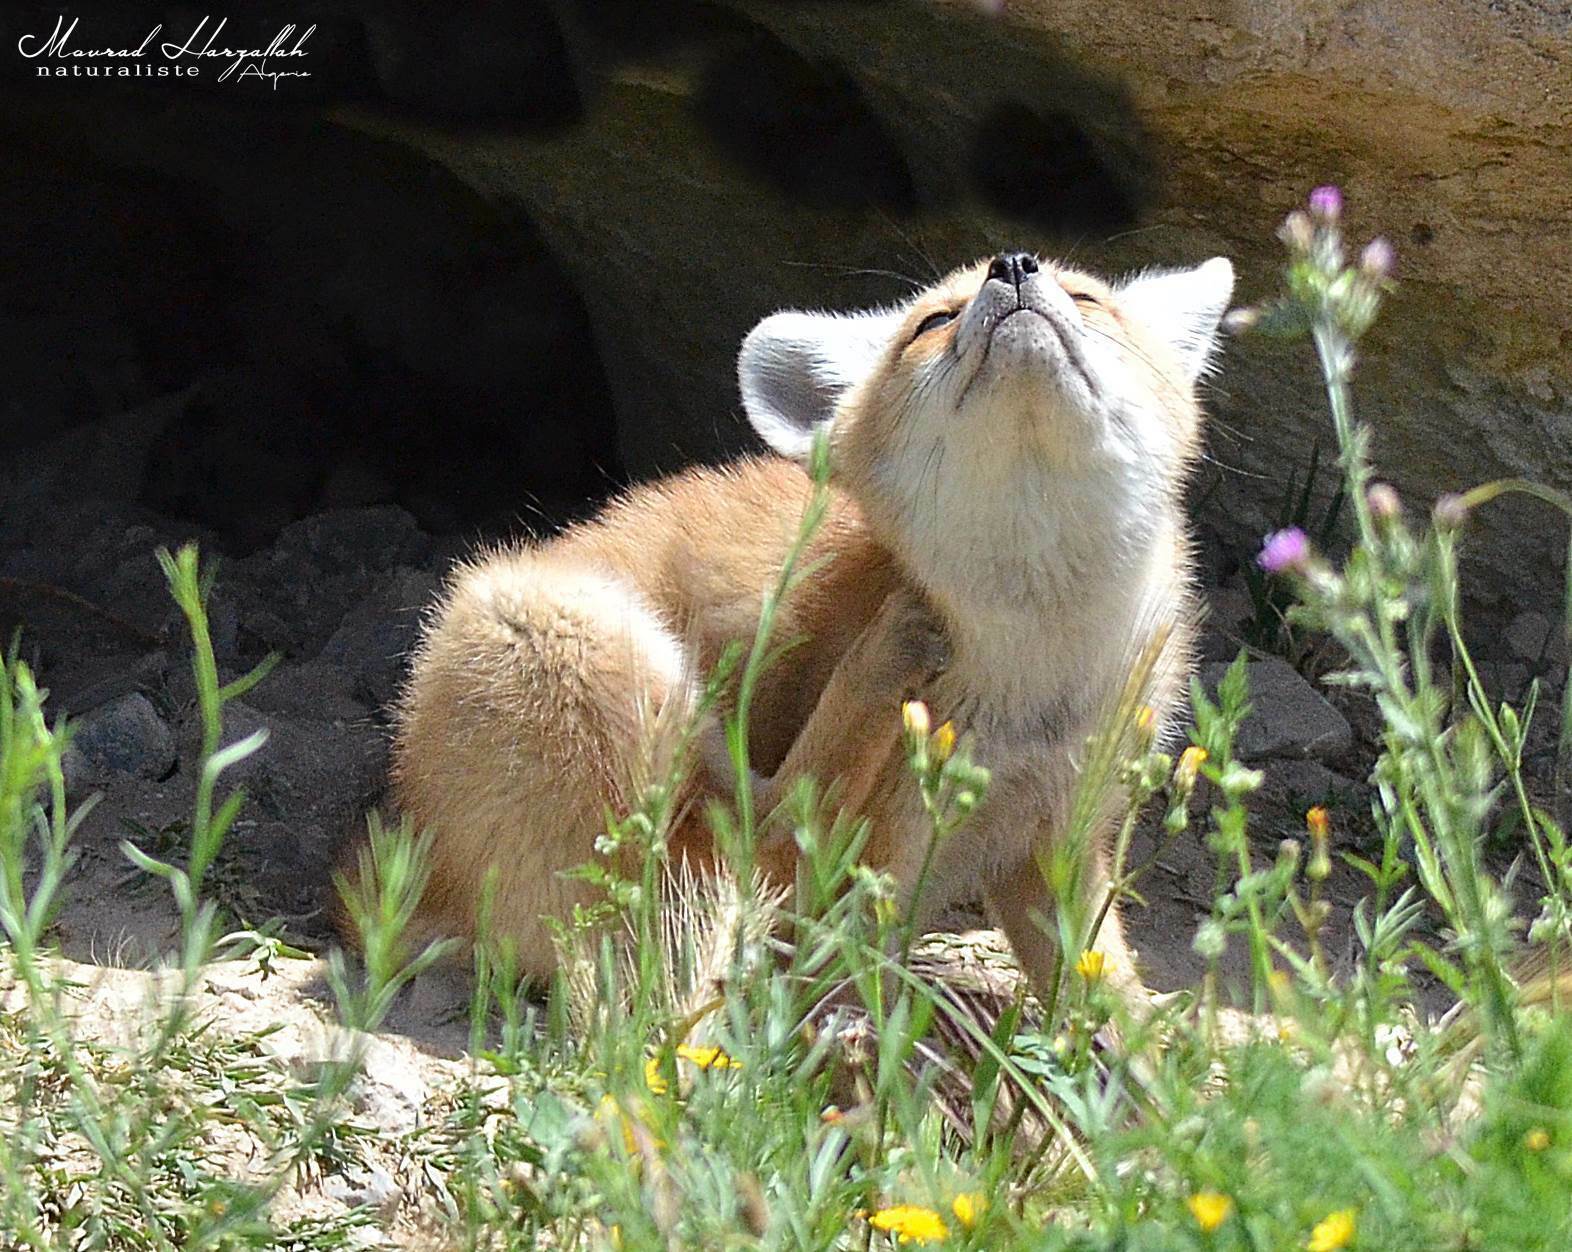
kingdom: Animalia
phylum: Chordata
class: Mammalia
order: Carnivora
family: Canidae
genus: Vulpes
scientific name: Vulpes vulpes
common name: Red fox
